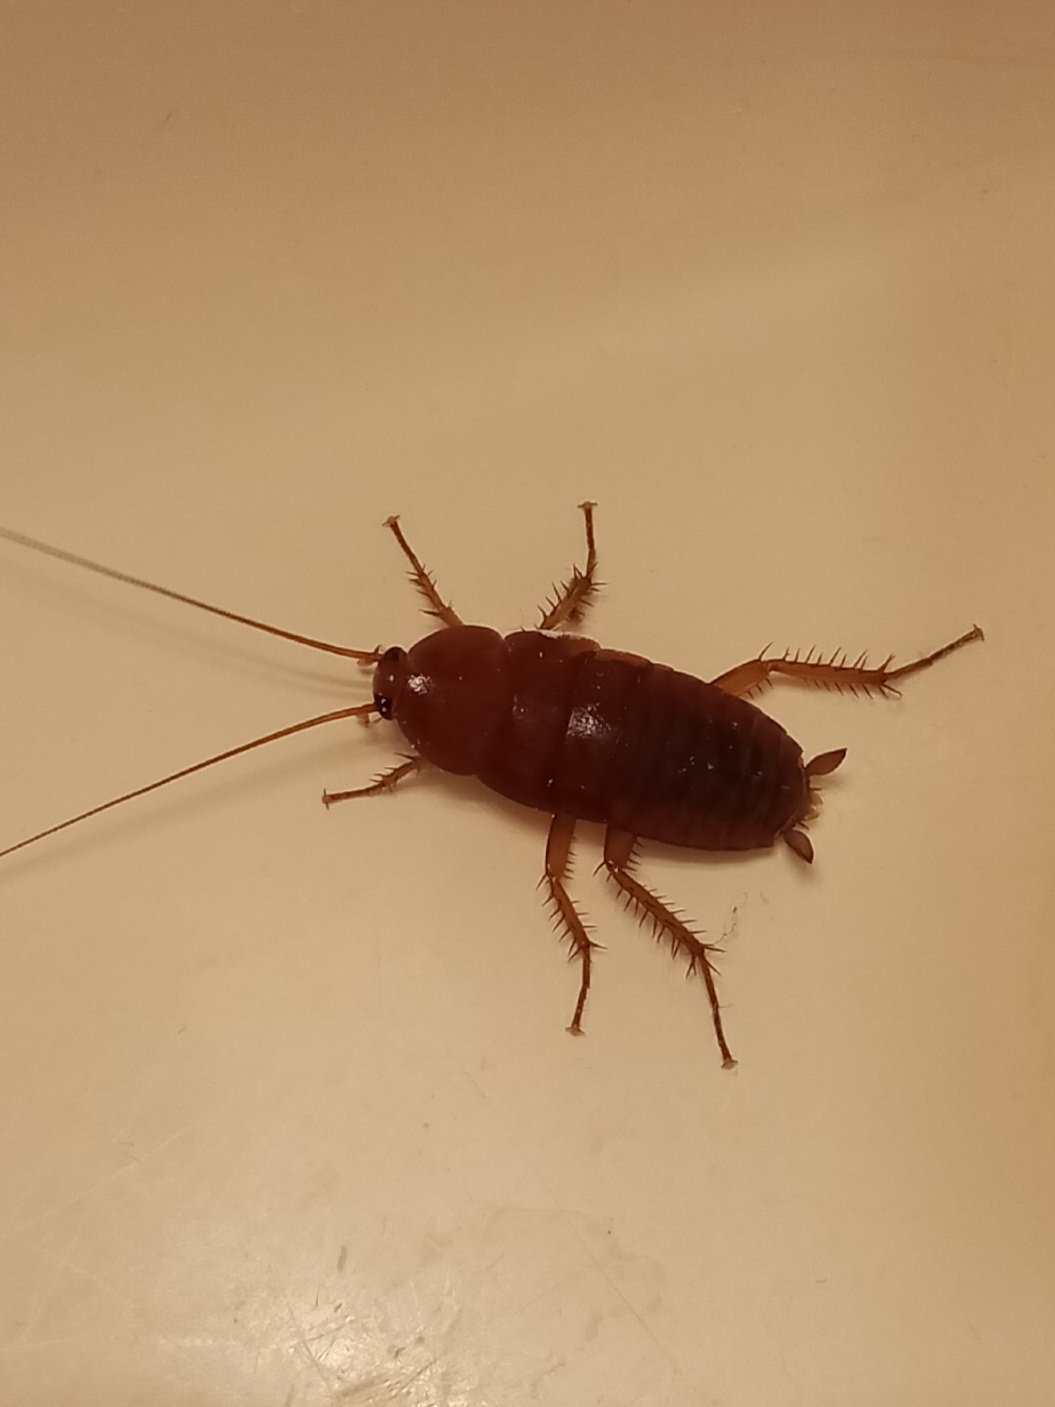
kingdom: Animalia
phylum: Arthropoda
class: Insecta
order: Blattodea
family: Blattidae
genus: Periplaneta
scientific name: Periplaneta fuliginosa
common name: Smokeybrown cockroad
